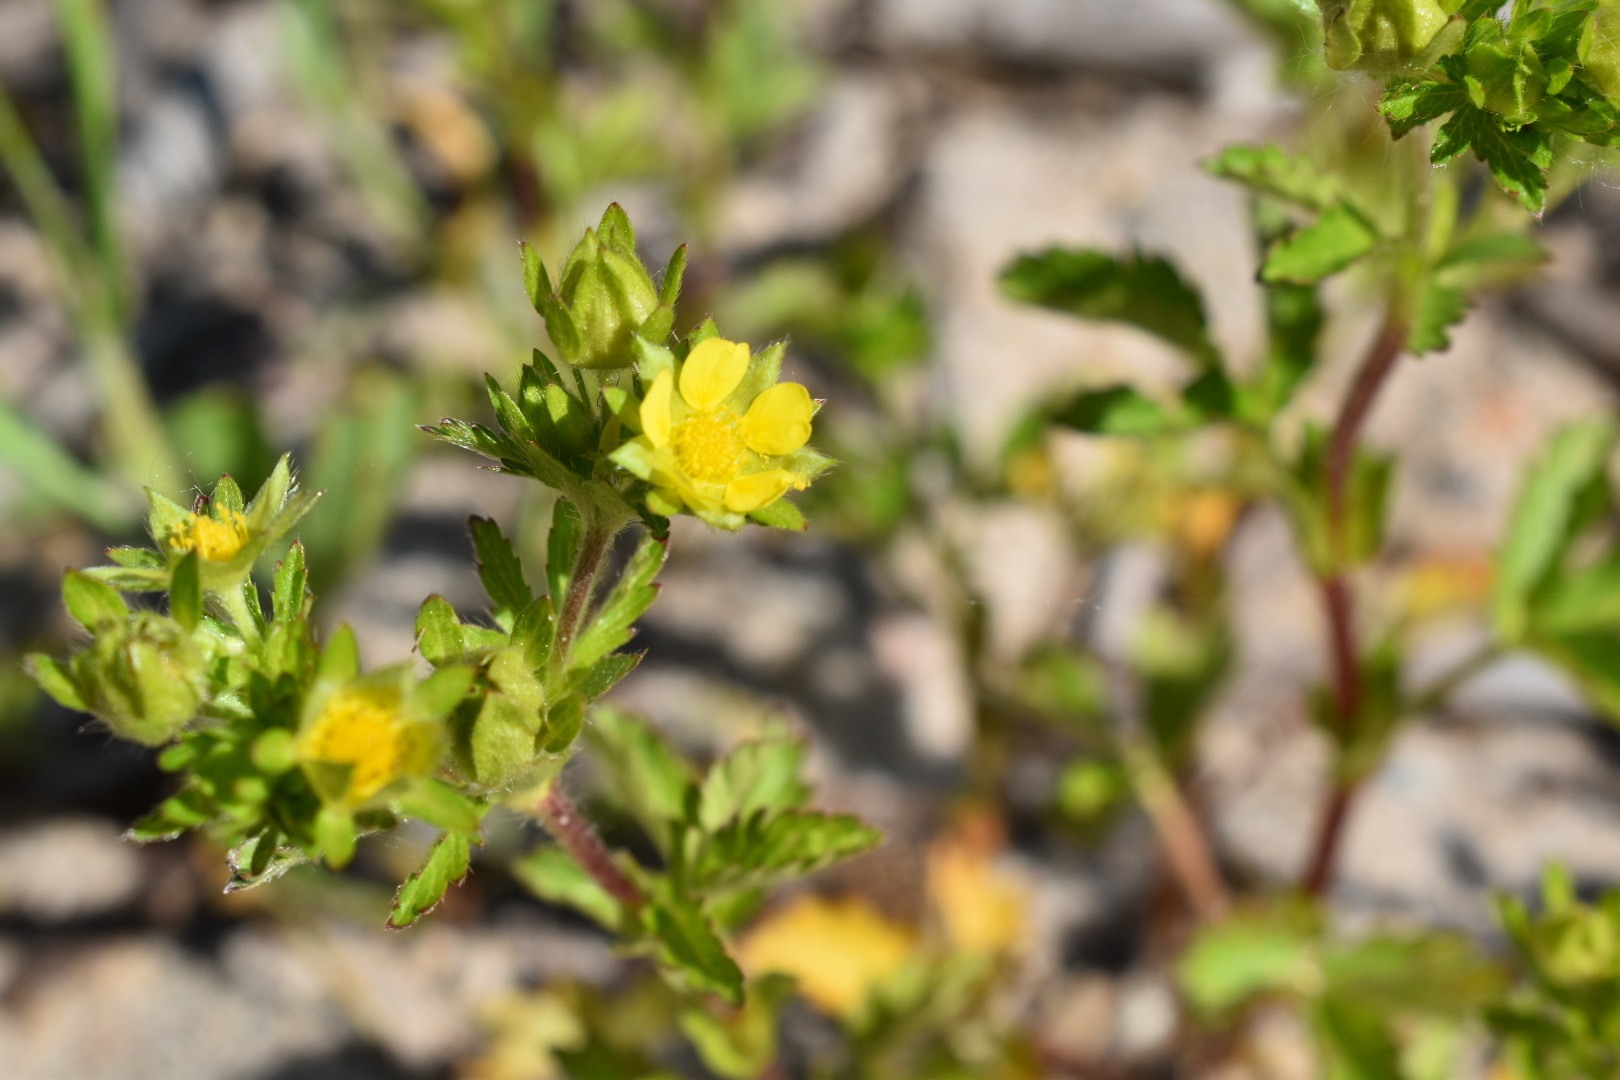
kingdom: Plantae
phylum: Tracheophyta
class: Magnoliopsida
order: Rosales
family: Rosaceae
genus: Potentilla
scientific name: Potentilla norvegica
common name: Ternate-leaved cinquefoil
